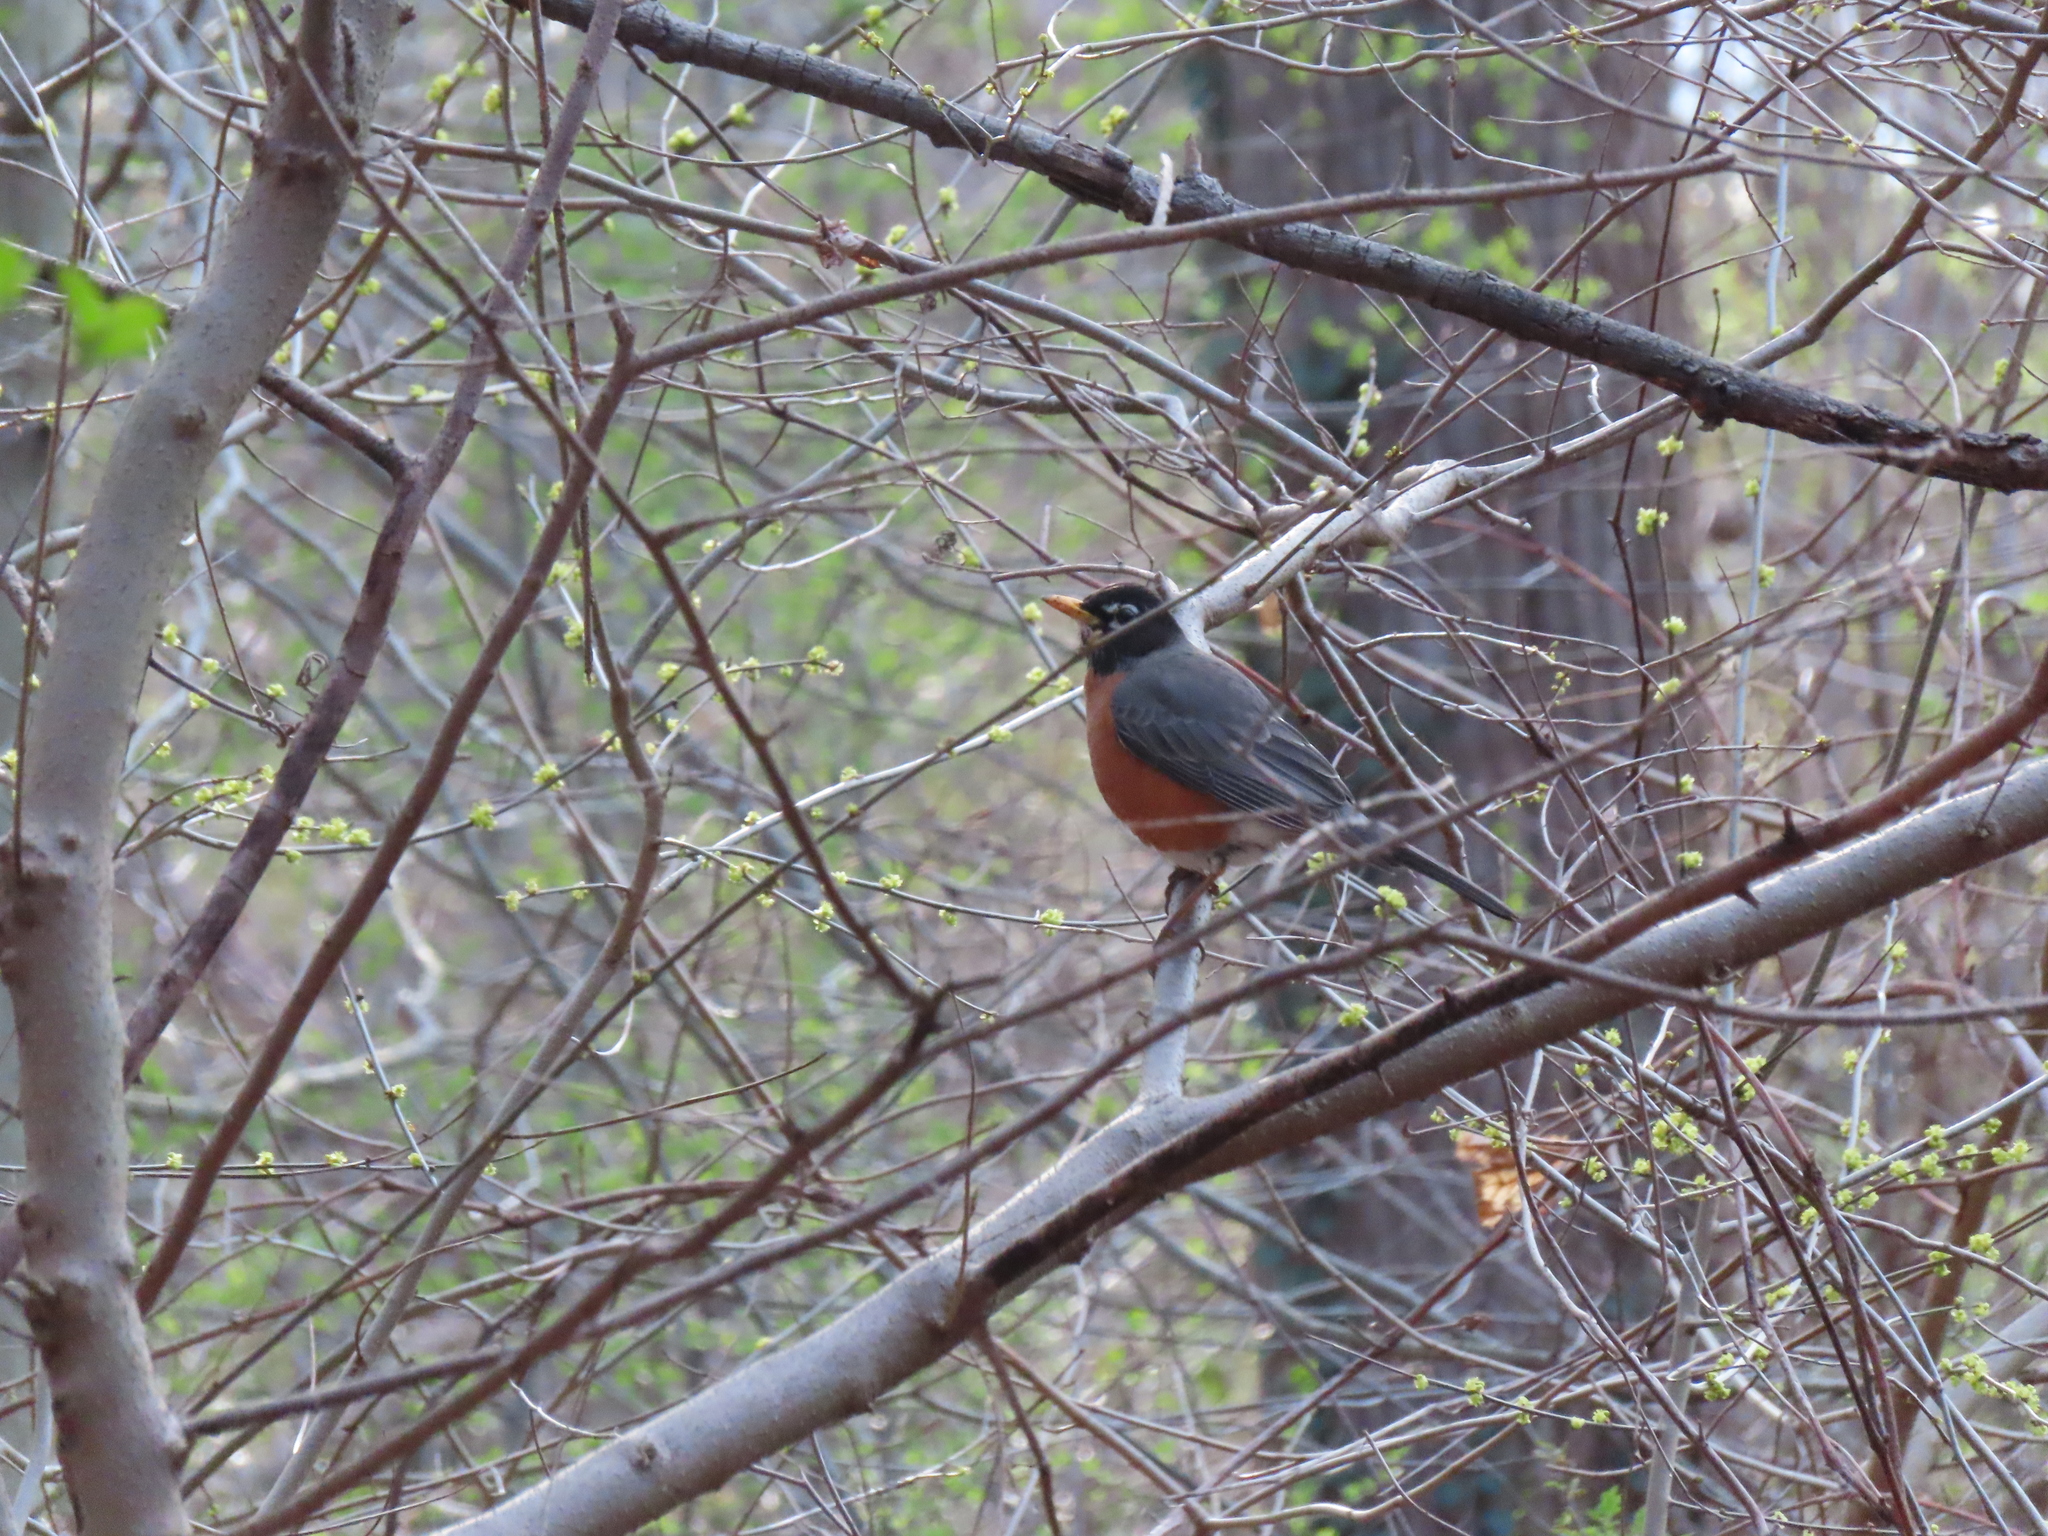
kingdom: Animalia
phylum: Chordata
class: Aves
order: Passeriformes
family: Turdidae
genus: Turdus
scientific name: Turdus migratorius
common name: American robin
